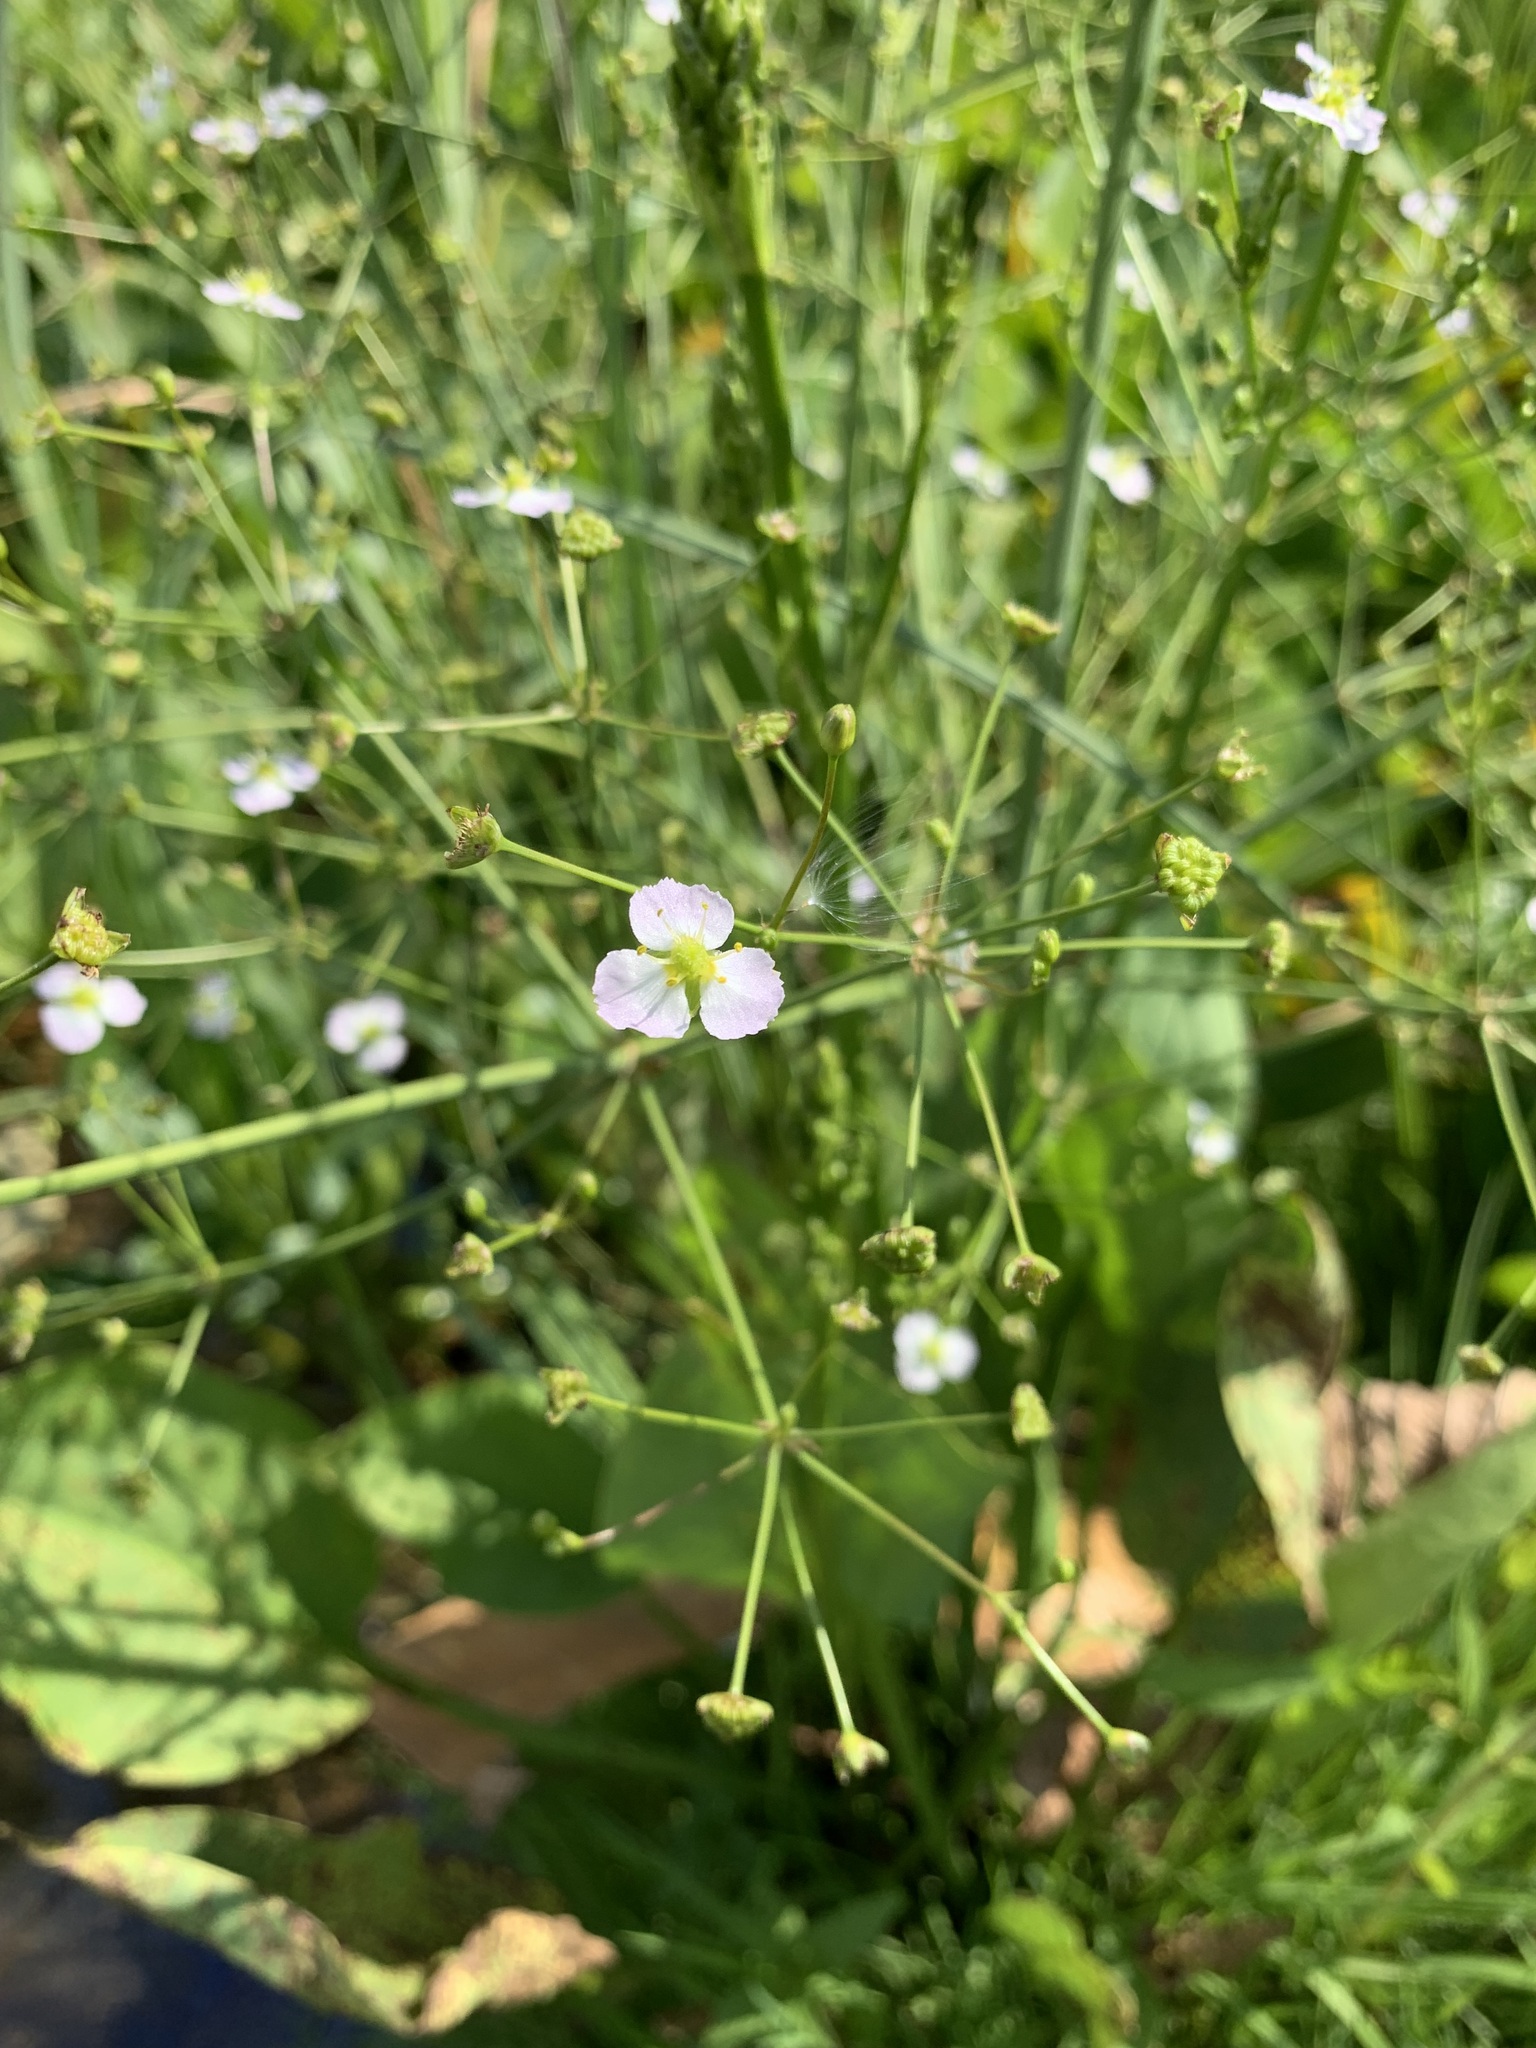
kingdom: Plantae
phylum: Tracheophyta
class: Liliopsida
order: Alismatales
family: Alismataceae
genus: Alisma
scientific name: Alisma plantago-aquatica
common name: Water-plantain
